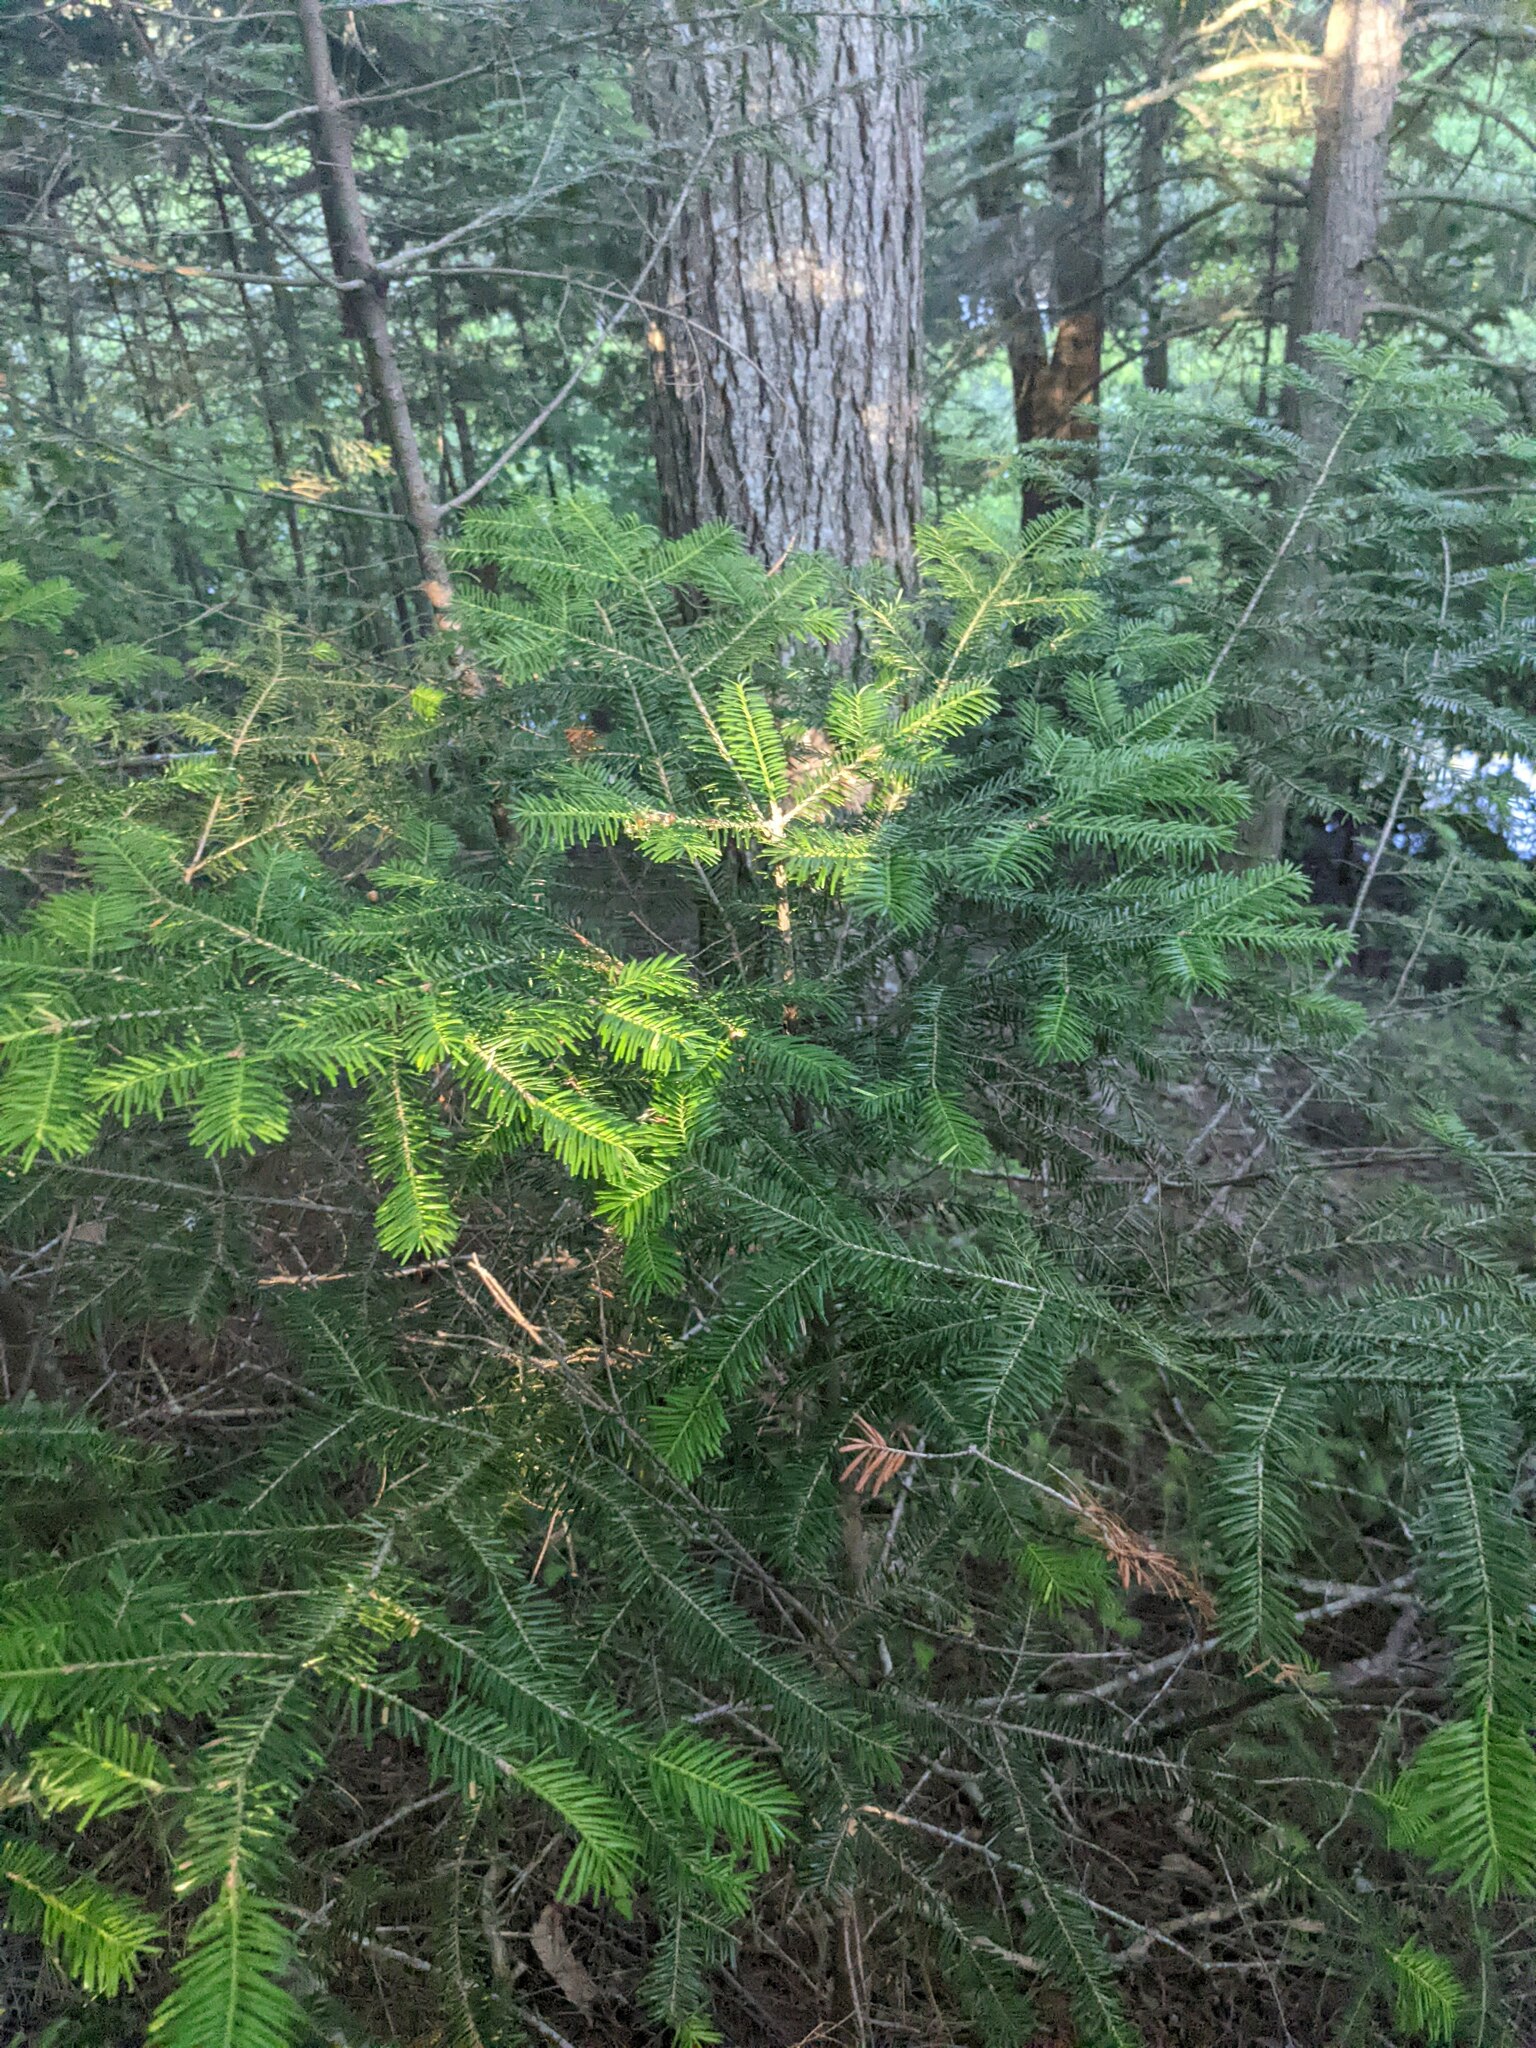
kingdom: Plantae
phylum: Tracheophyta
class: Pinopsida
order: Pinales
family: Pinaceae
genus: Abies
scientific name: Abies balsamea
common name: Balsam fir
